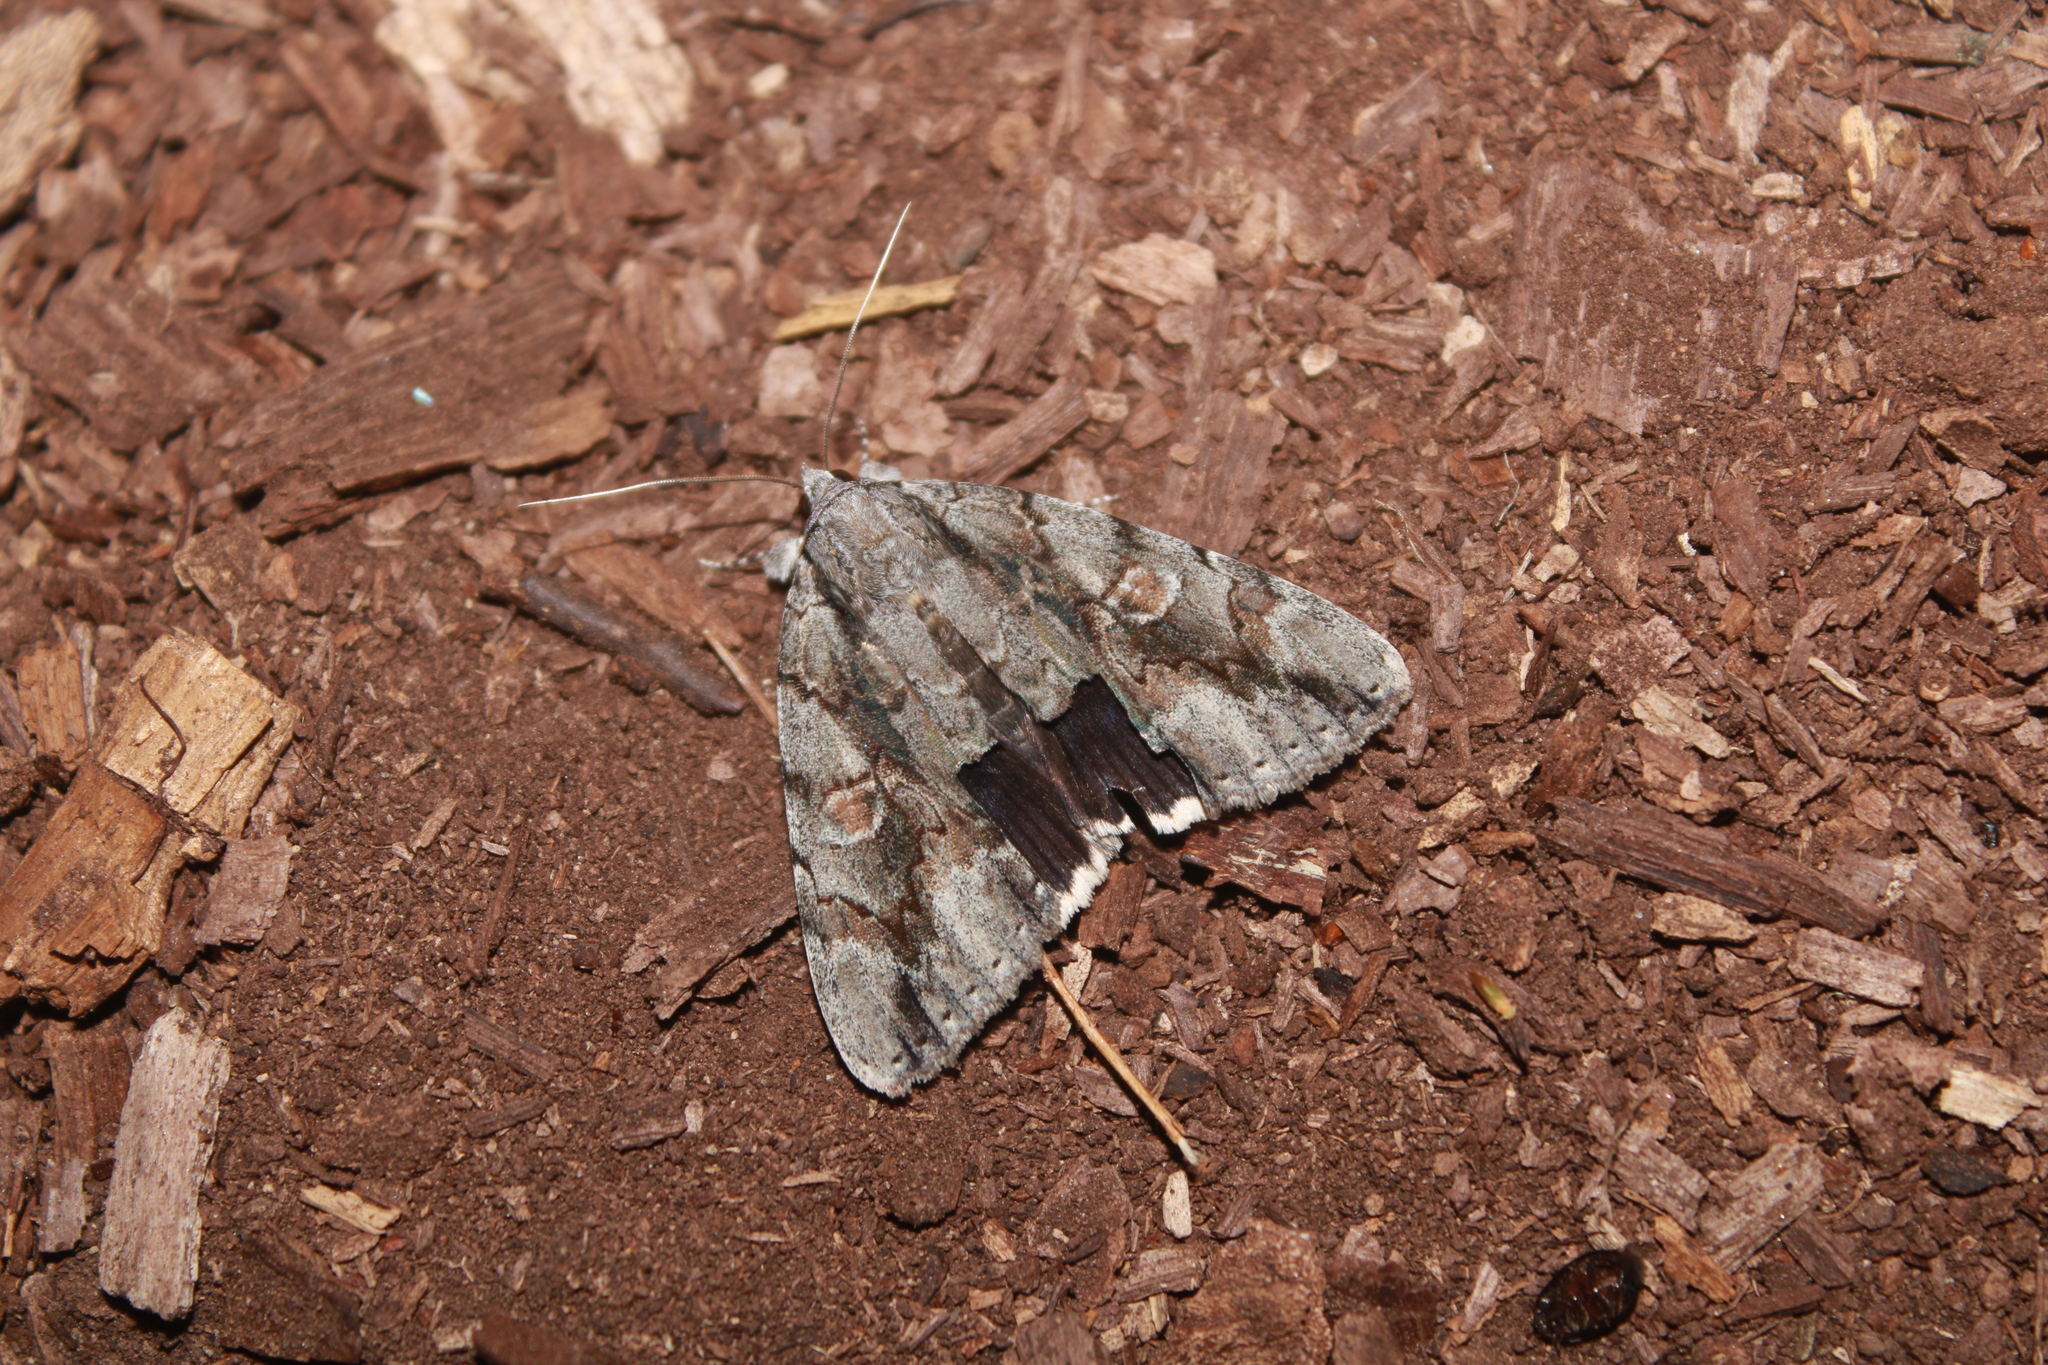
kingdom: Animalia
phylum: Arthropoda
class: Insecta
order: Lepidoptera
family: Erebidae
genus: Catocala
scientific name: Catocala flebilis
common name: Mournful underwing
